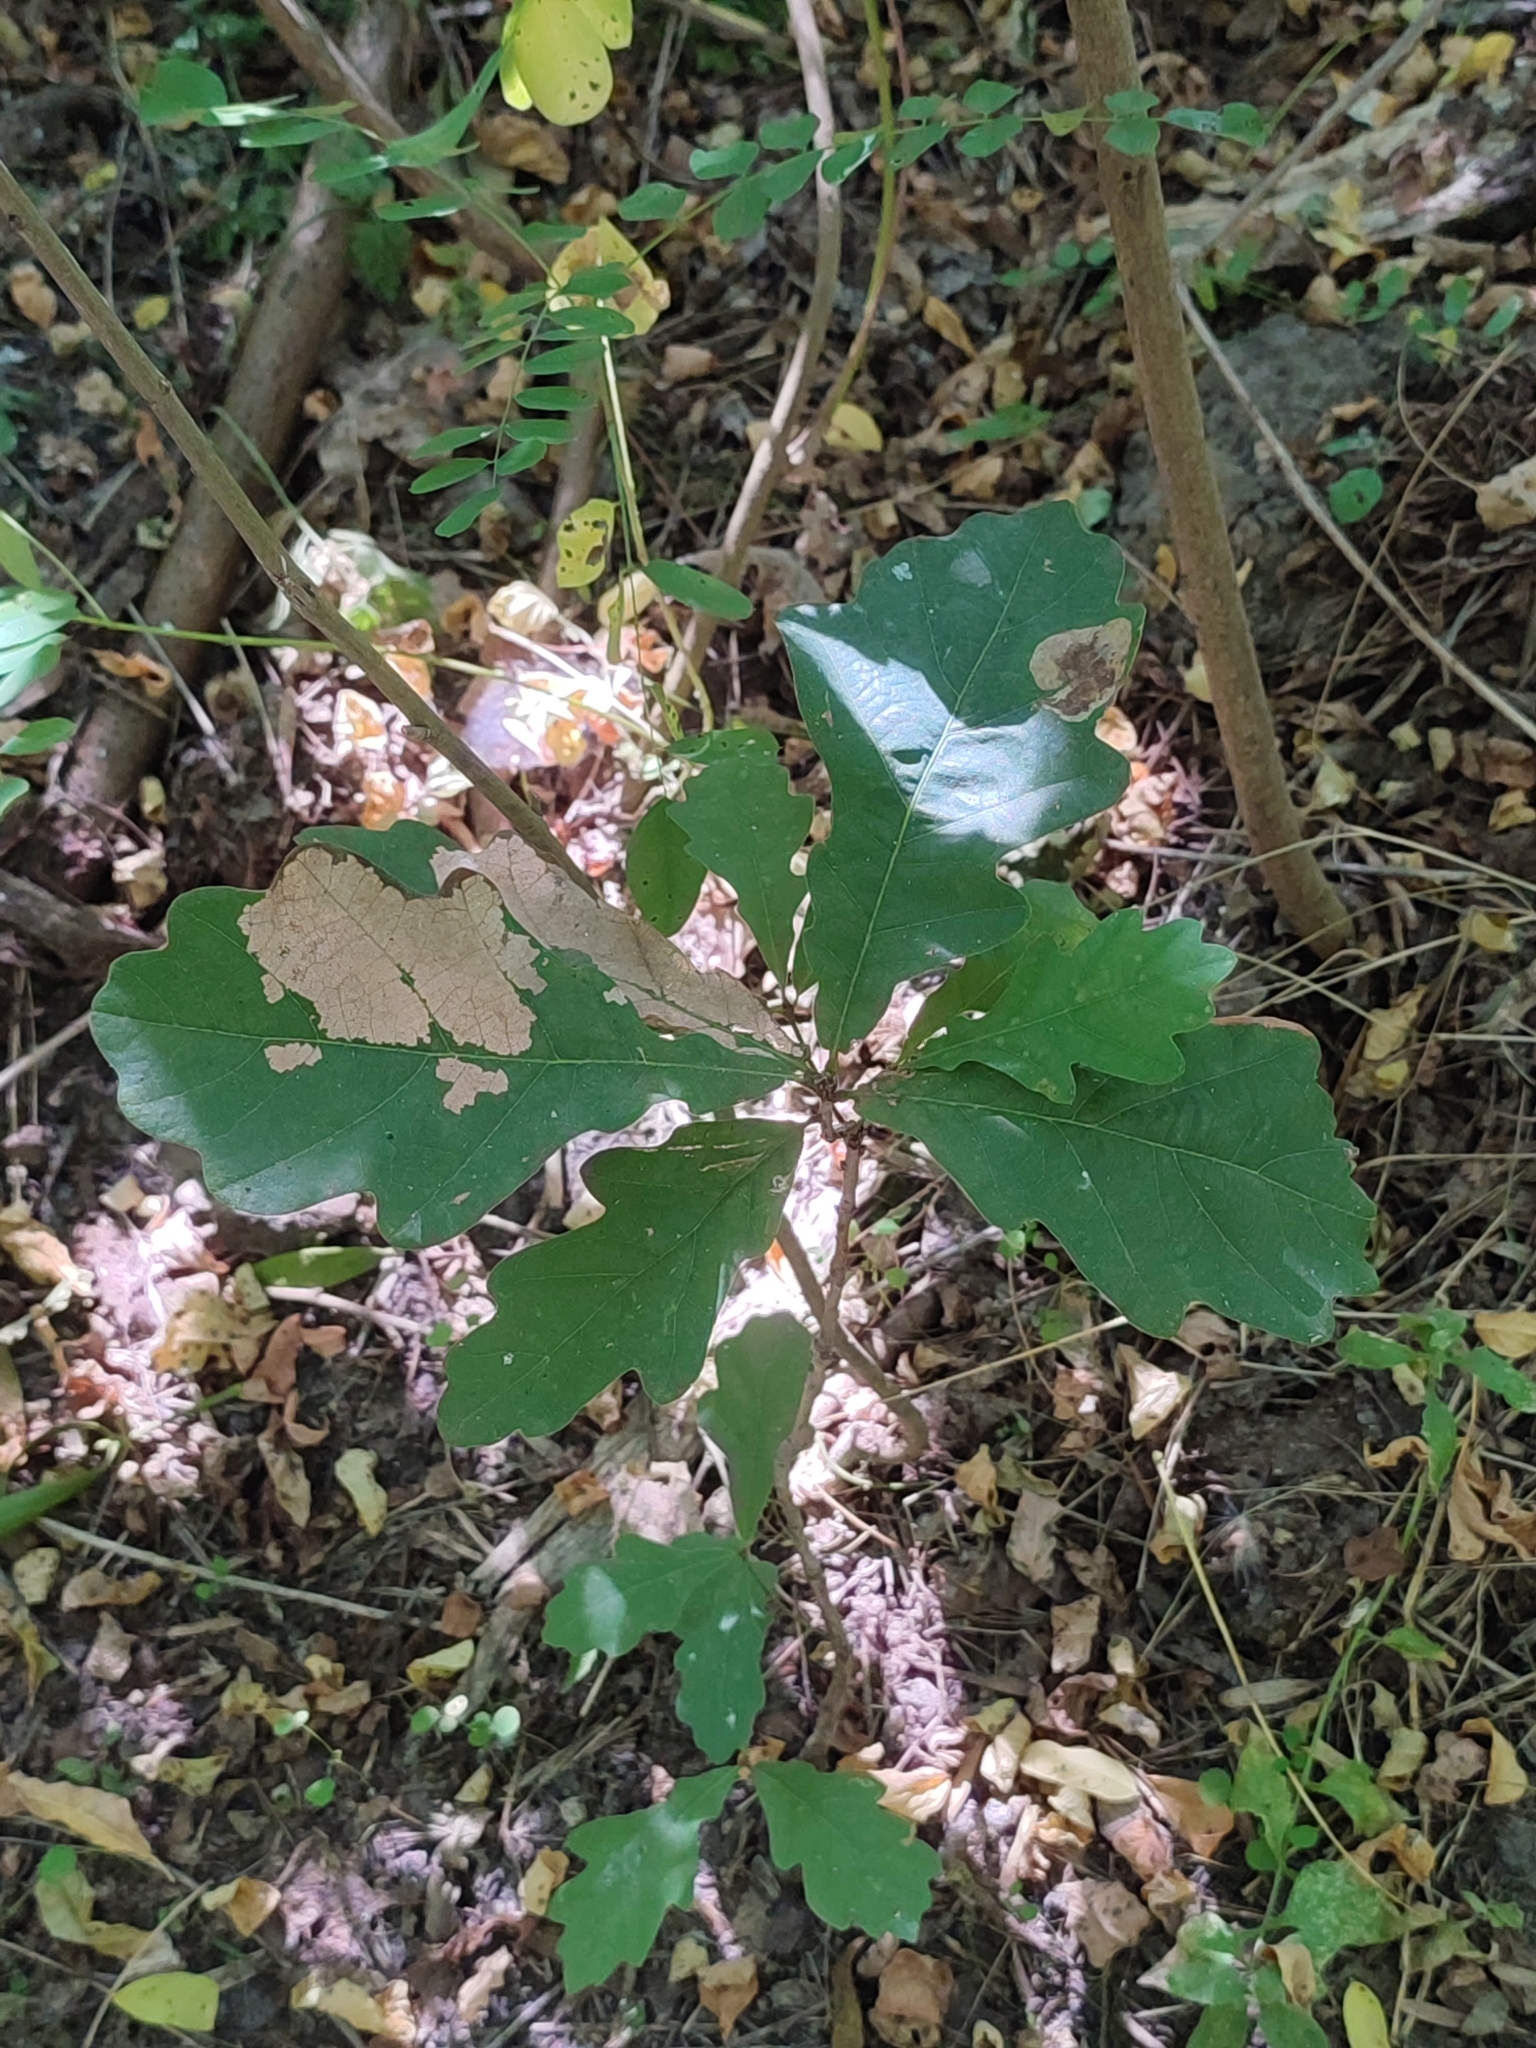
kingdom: Plantae
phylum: Tracheophyta
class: Magnoliopsida
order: Fagales
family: Fagaceae
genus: Quercus
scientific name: Quercus robur
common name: Pedunculate oak
